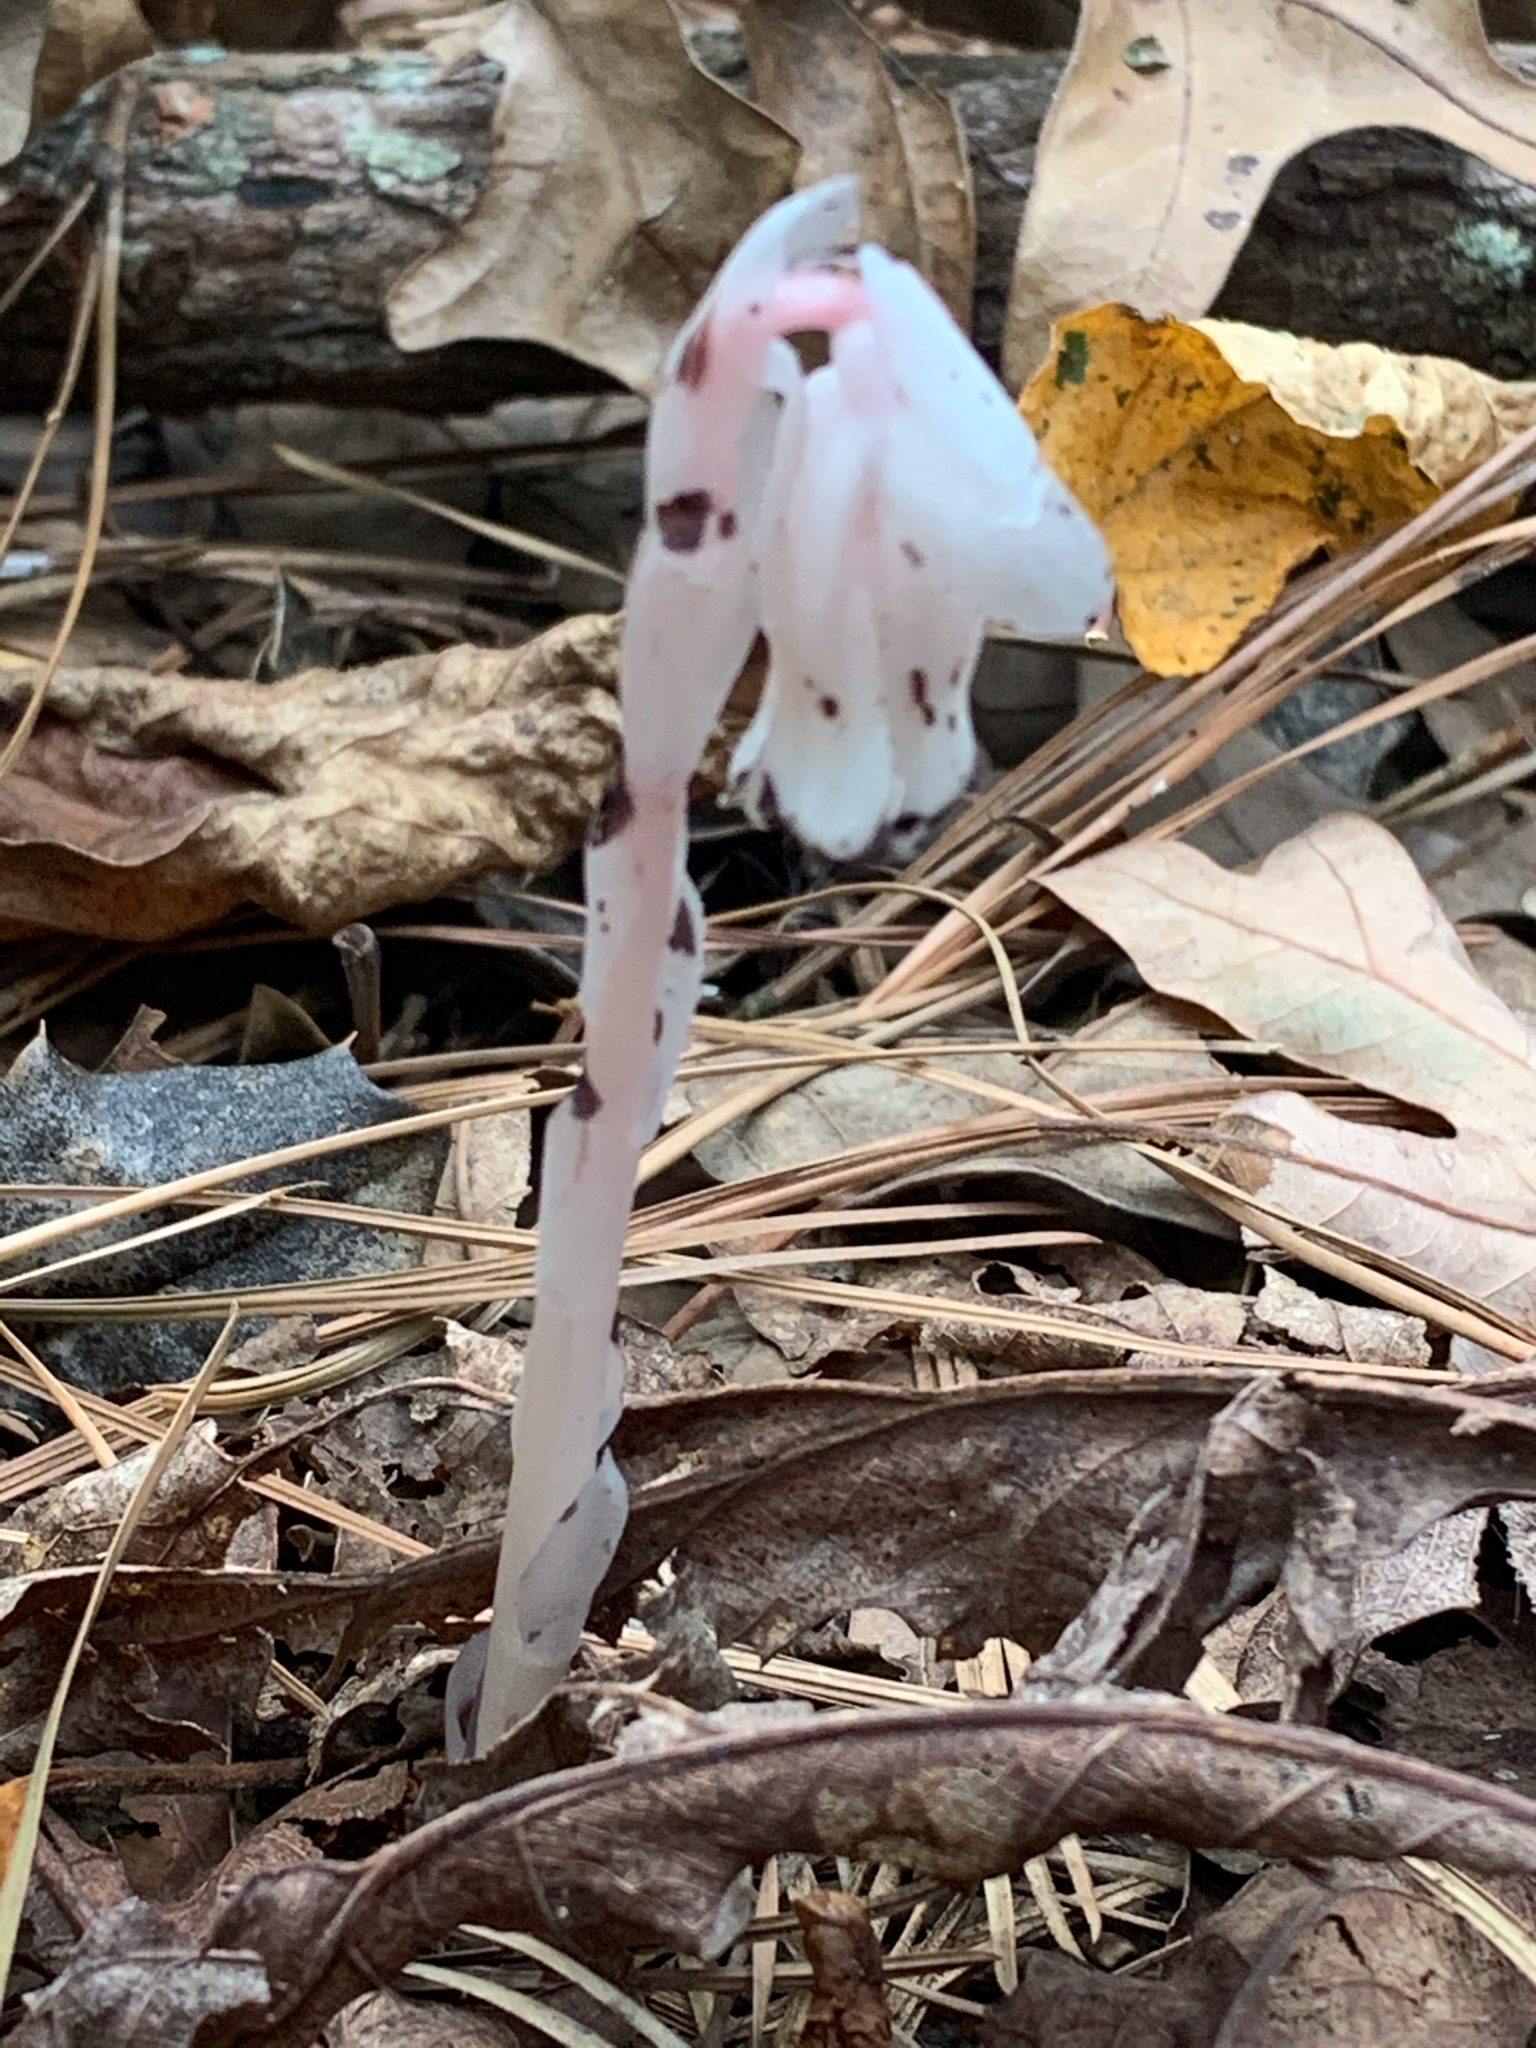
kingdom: Plantae
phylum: Tracheophyta
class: Magnoliopsida
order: Ericales
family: Ericaceae
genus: Monotropa
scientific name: Monotropa uniflora
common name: Convulsion root
